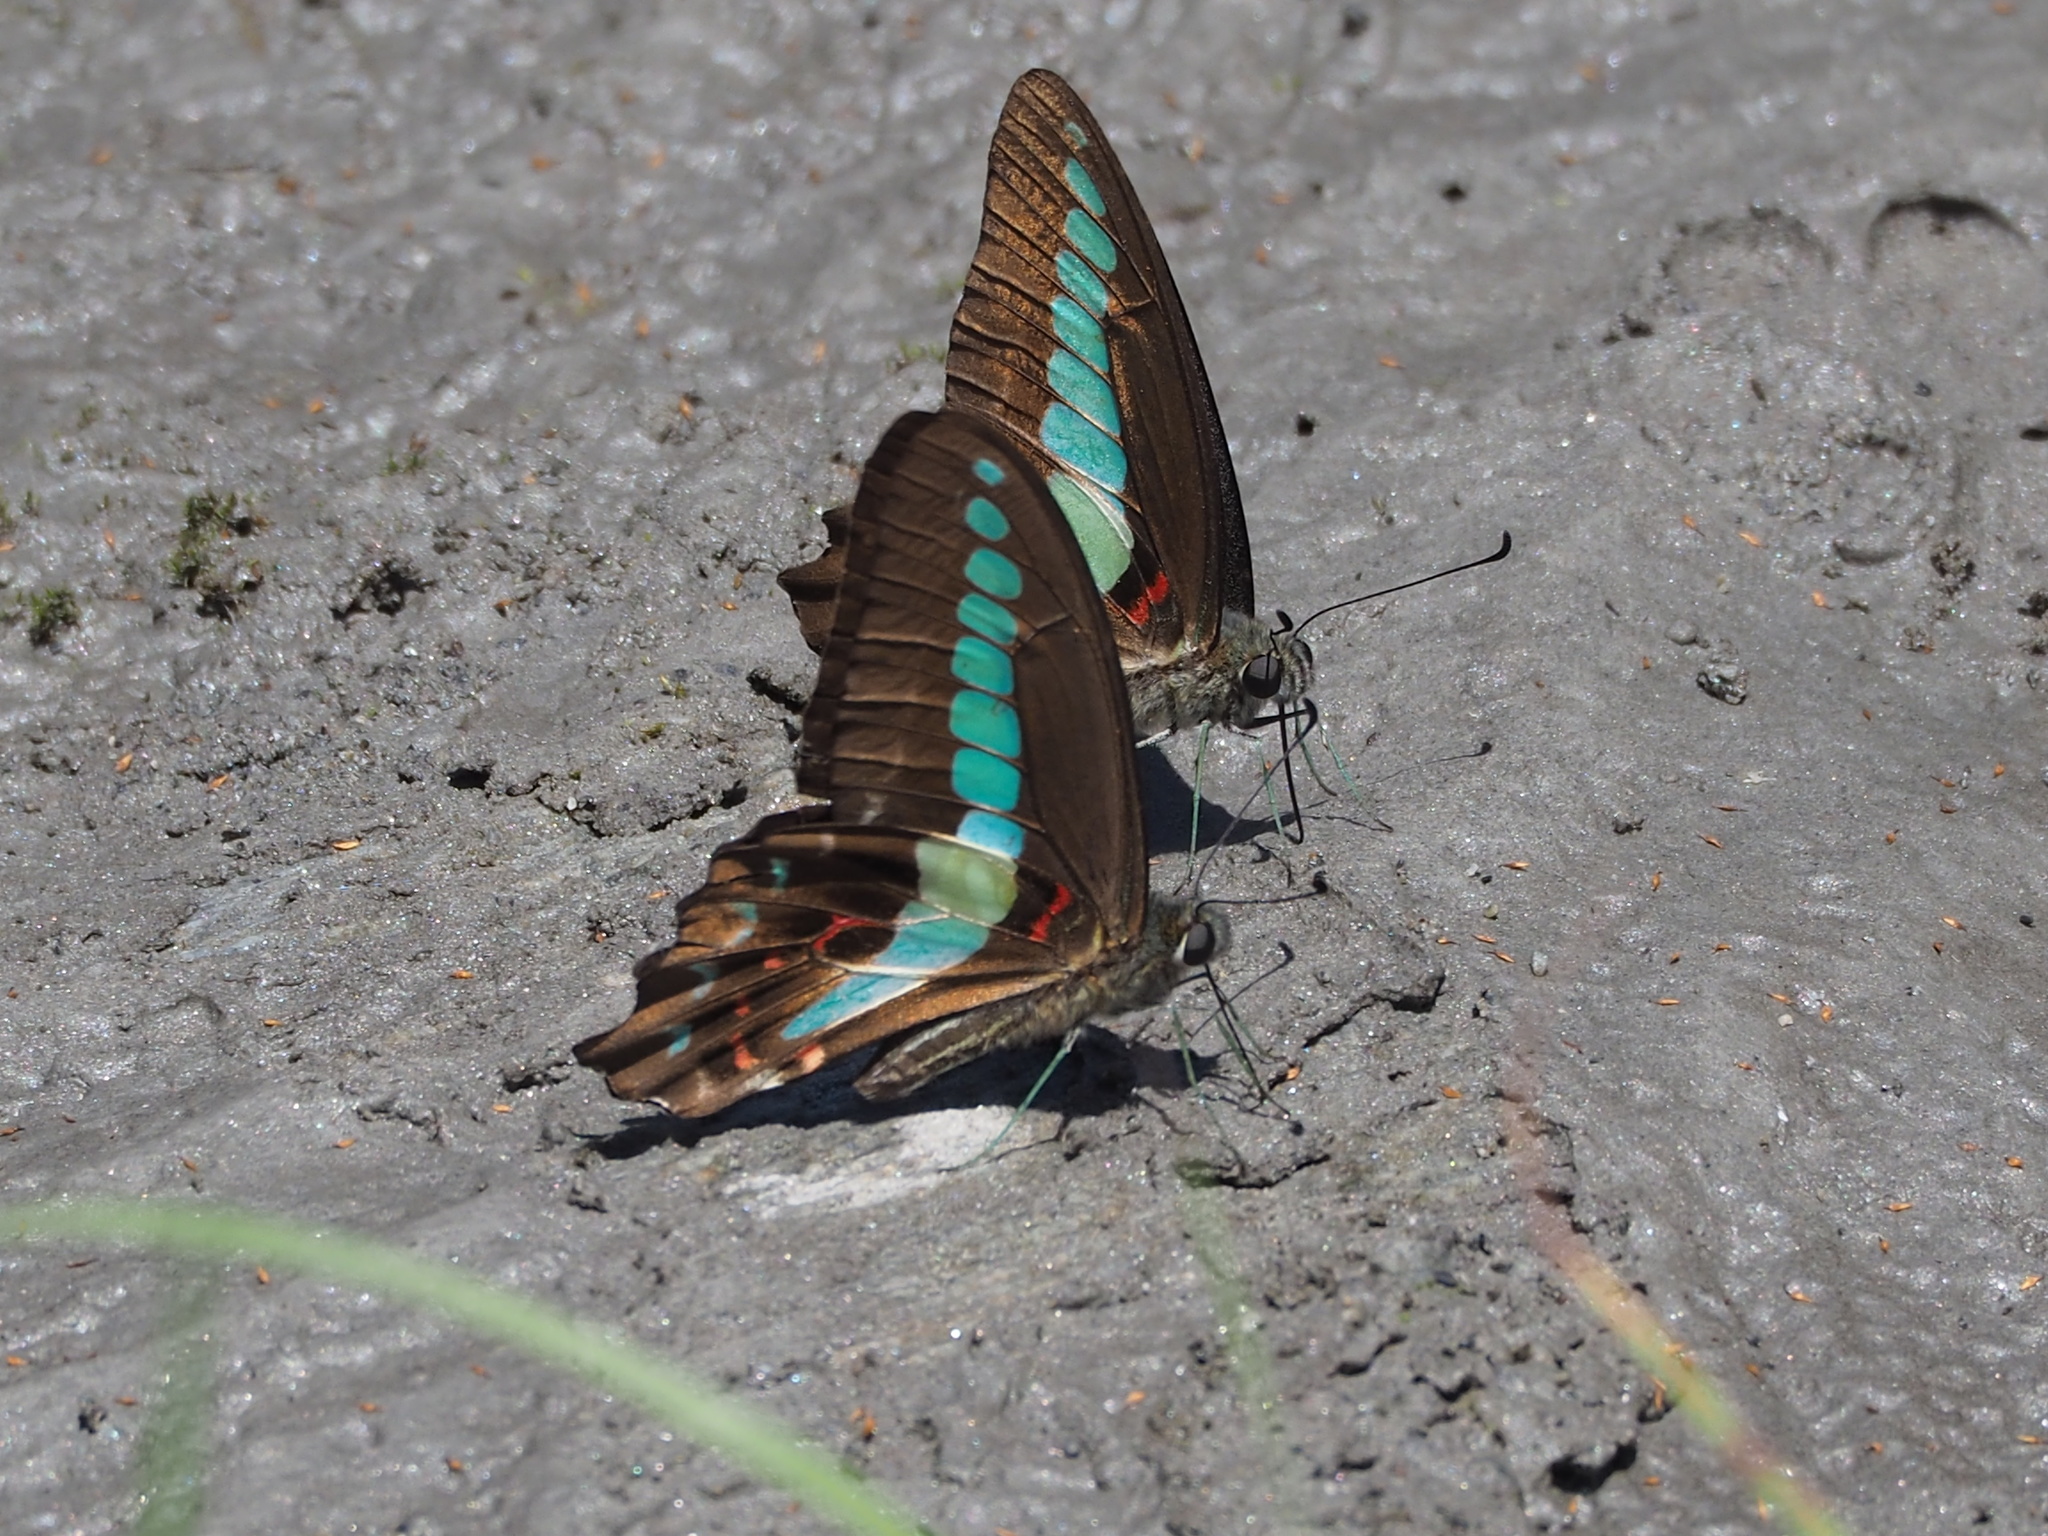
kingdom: Fungi
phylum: Ascomycota
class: Sordariomycetes
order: Microascales
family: Microascaceae
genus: Graphium
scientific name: Graphium sarpedon
